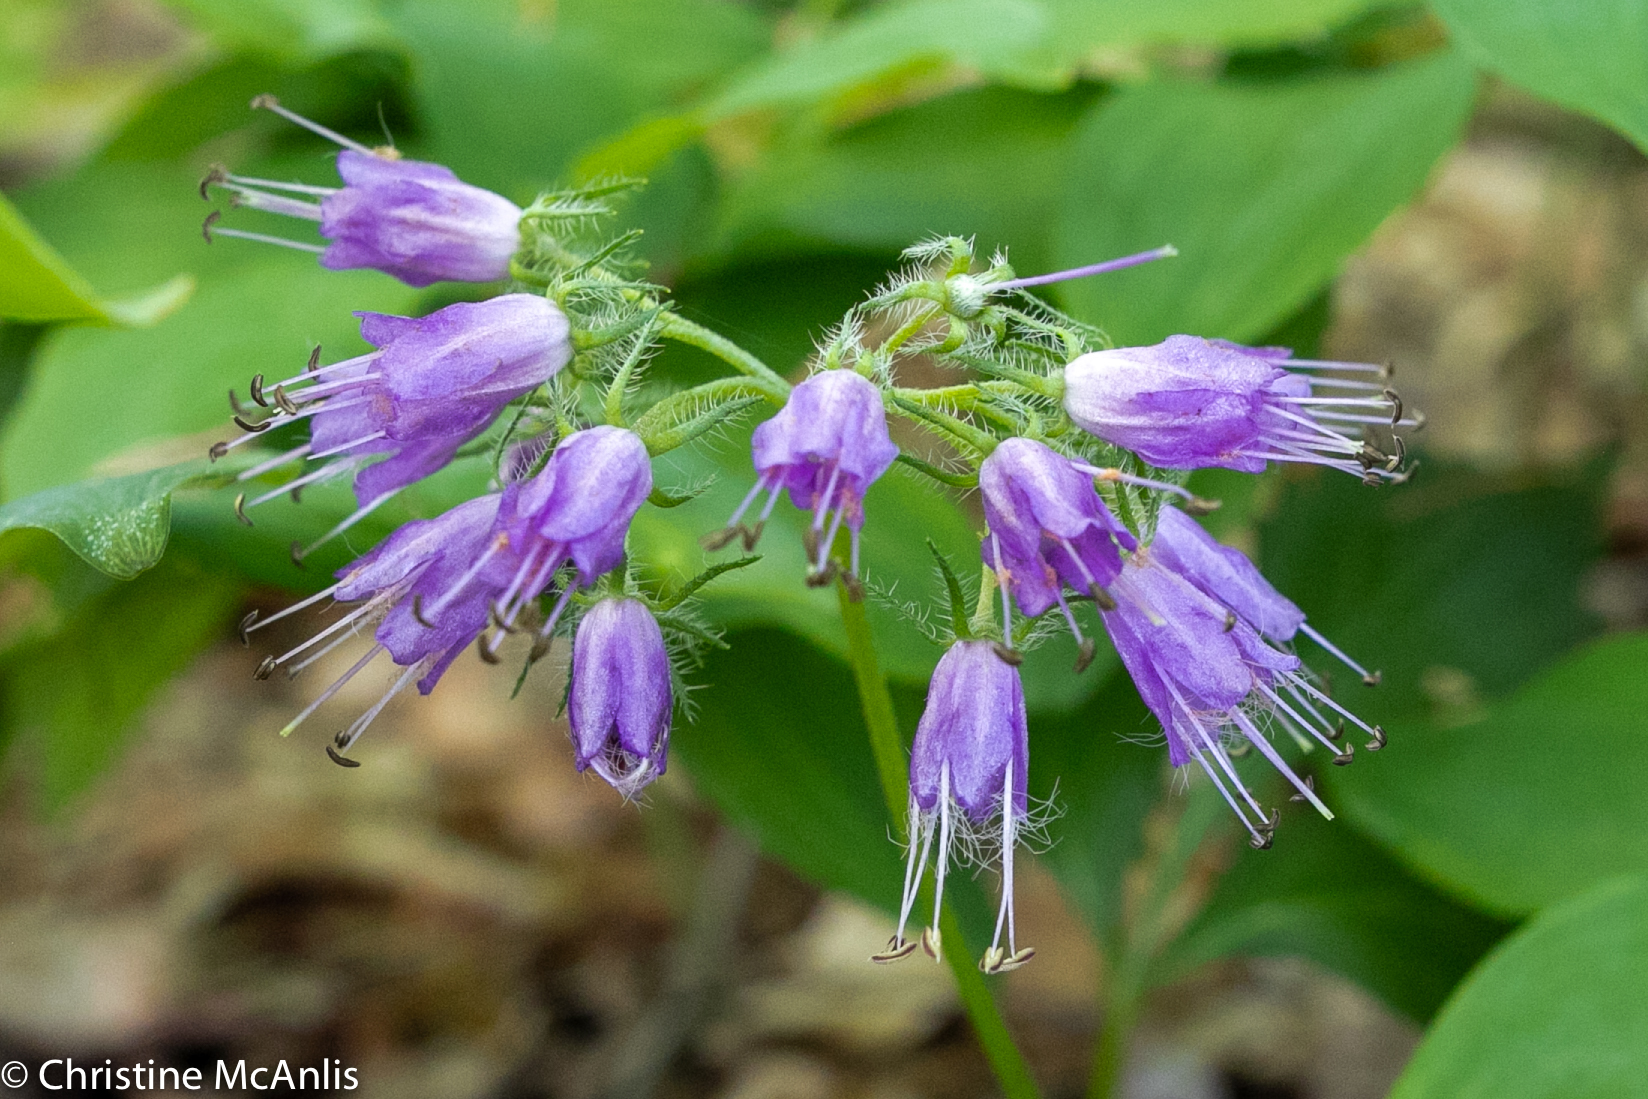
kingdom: Plantae
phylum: Tracheophyta
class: Magnoliopsida
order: Boraginales
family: Hydrophyllaceae
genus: Hydrophyllum
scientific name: Hydrophyllum virginianum
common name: Virginia waterleaf
